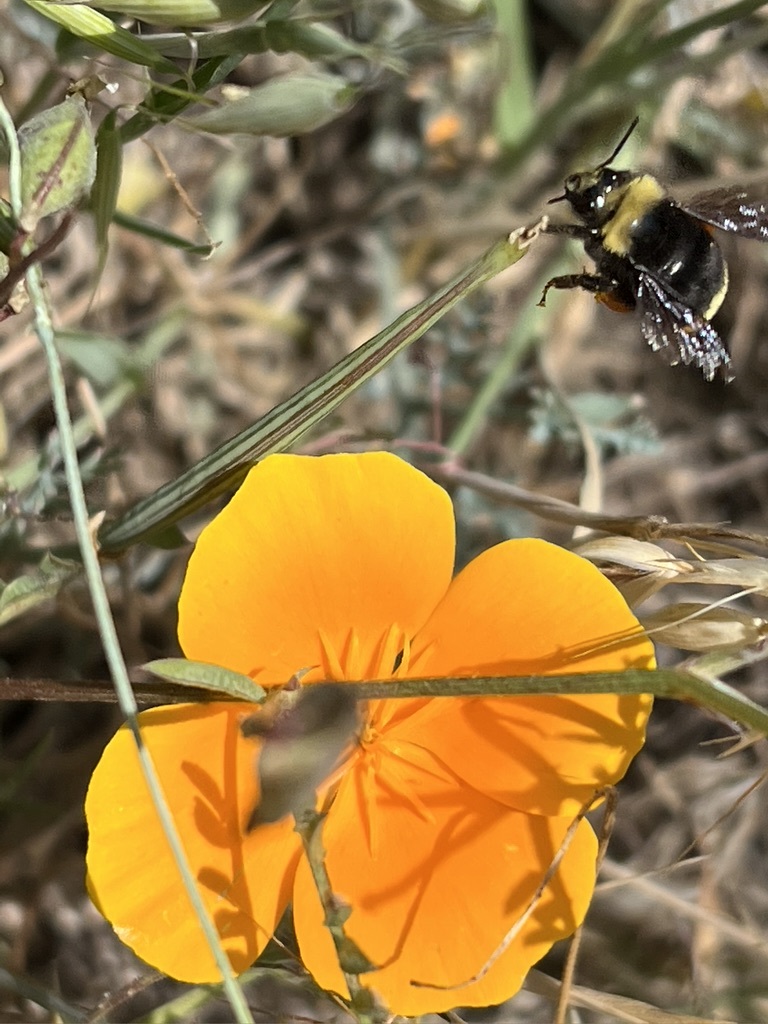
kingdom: Plantae
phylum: Tracheophyta
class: Magnoliopsida
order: Ranunculales
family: Papaveraceae
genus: Eschscholzia
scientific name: Eschscholzia californica
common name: California poppy
